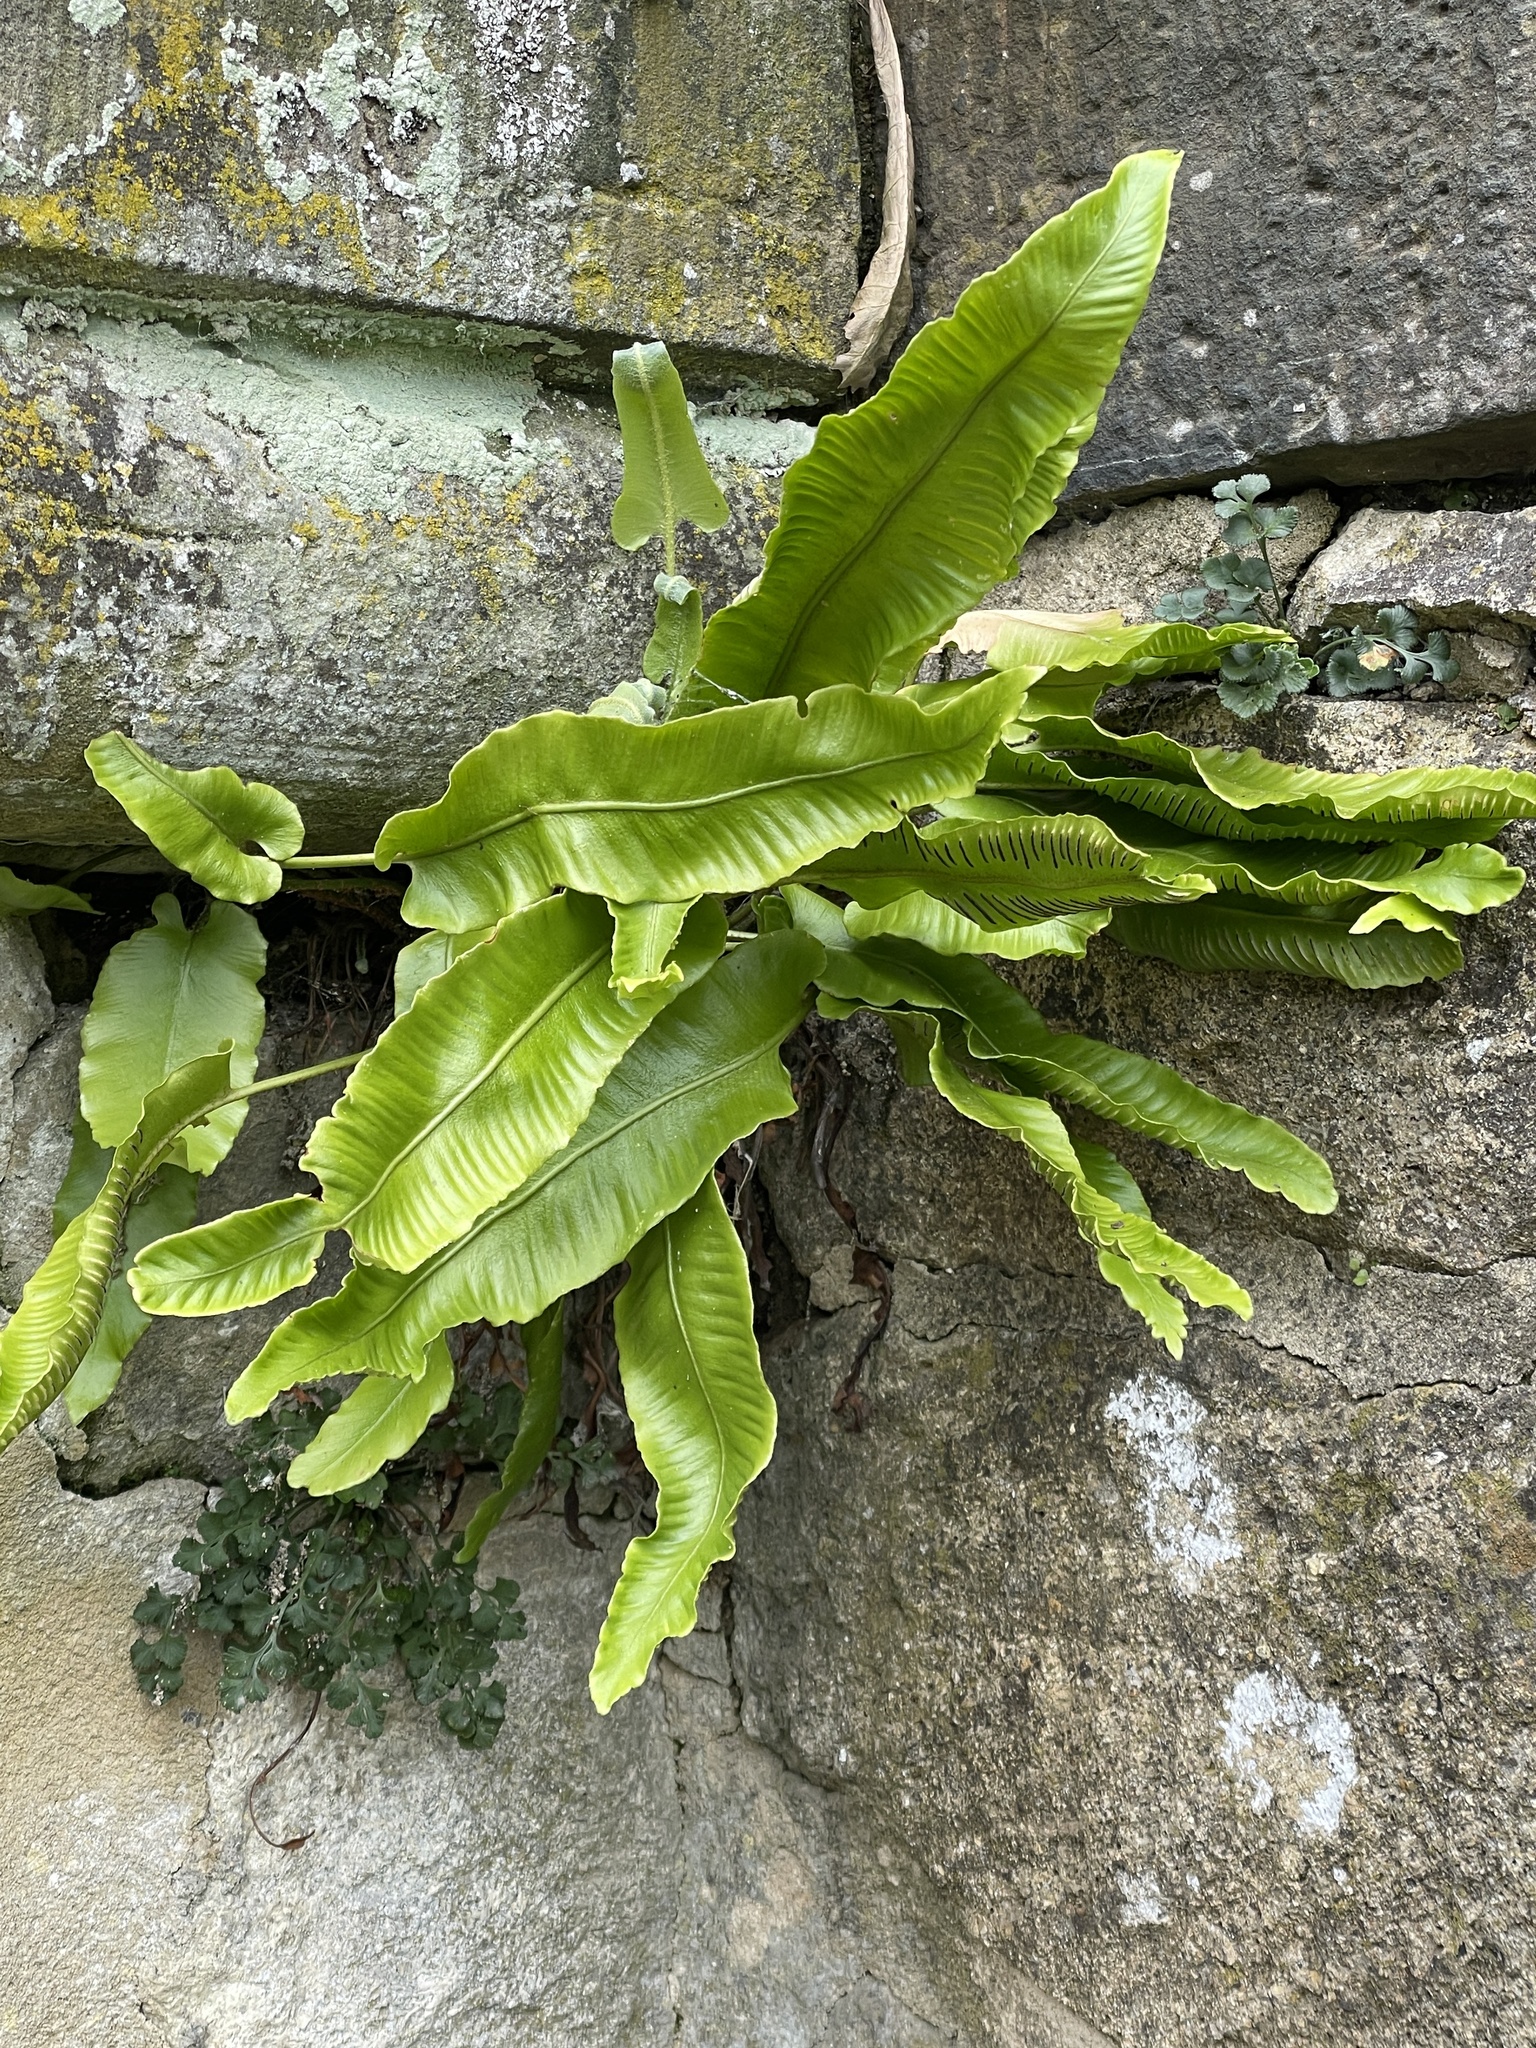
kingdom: Plantae
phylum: Tracheophyta
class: Polypodiopsida
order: Polypodiales
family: Aspleniaceae
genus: Asplenium
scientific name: Asplenium scolopendrium
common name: Hart's-tongue fern
